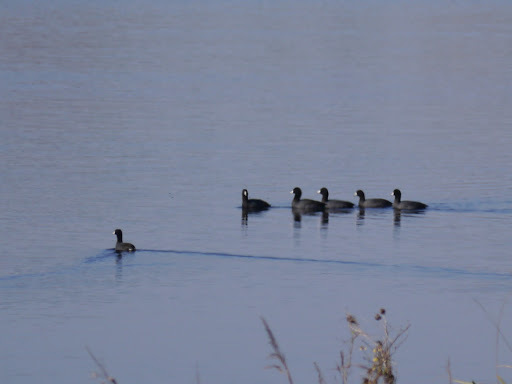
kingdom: Animalia
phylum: Chordata
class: Aves
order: Gruiformes
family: Rallidae
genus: Fulica
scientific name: Fulica americana
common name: American coot
